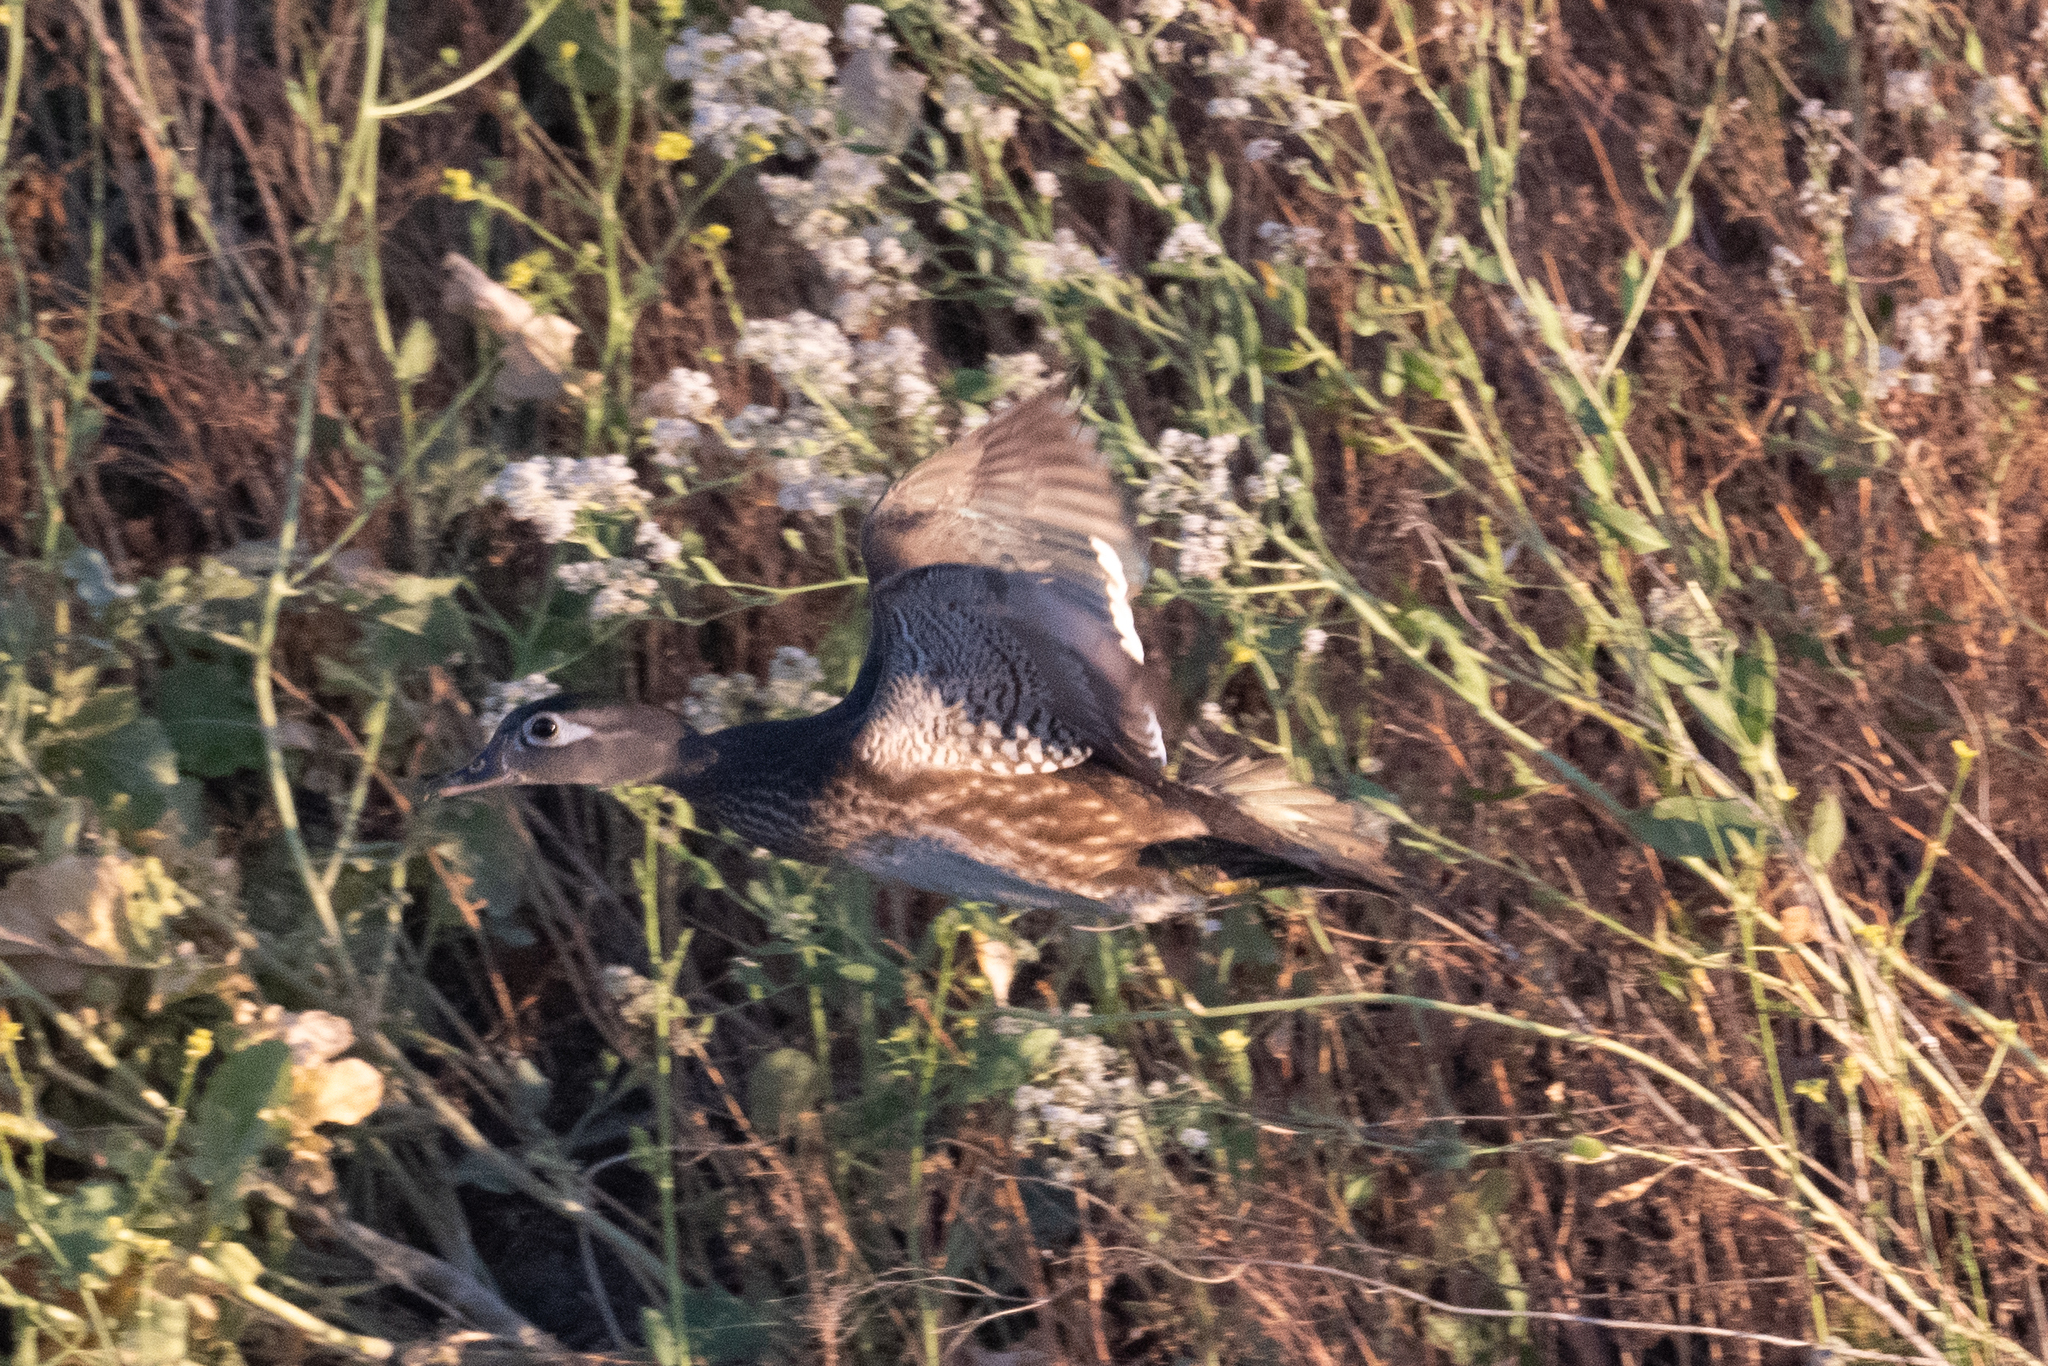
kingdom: Animalia
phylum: Chordata
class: Aves
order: Anseriformes
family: Anatidae
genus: Aix
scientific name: Aix sponsa
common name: Wood duck
